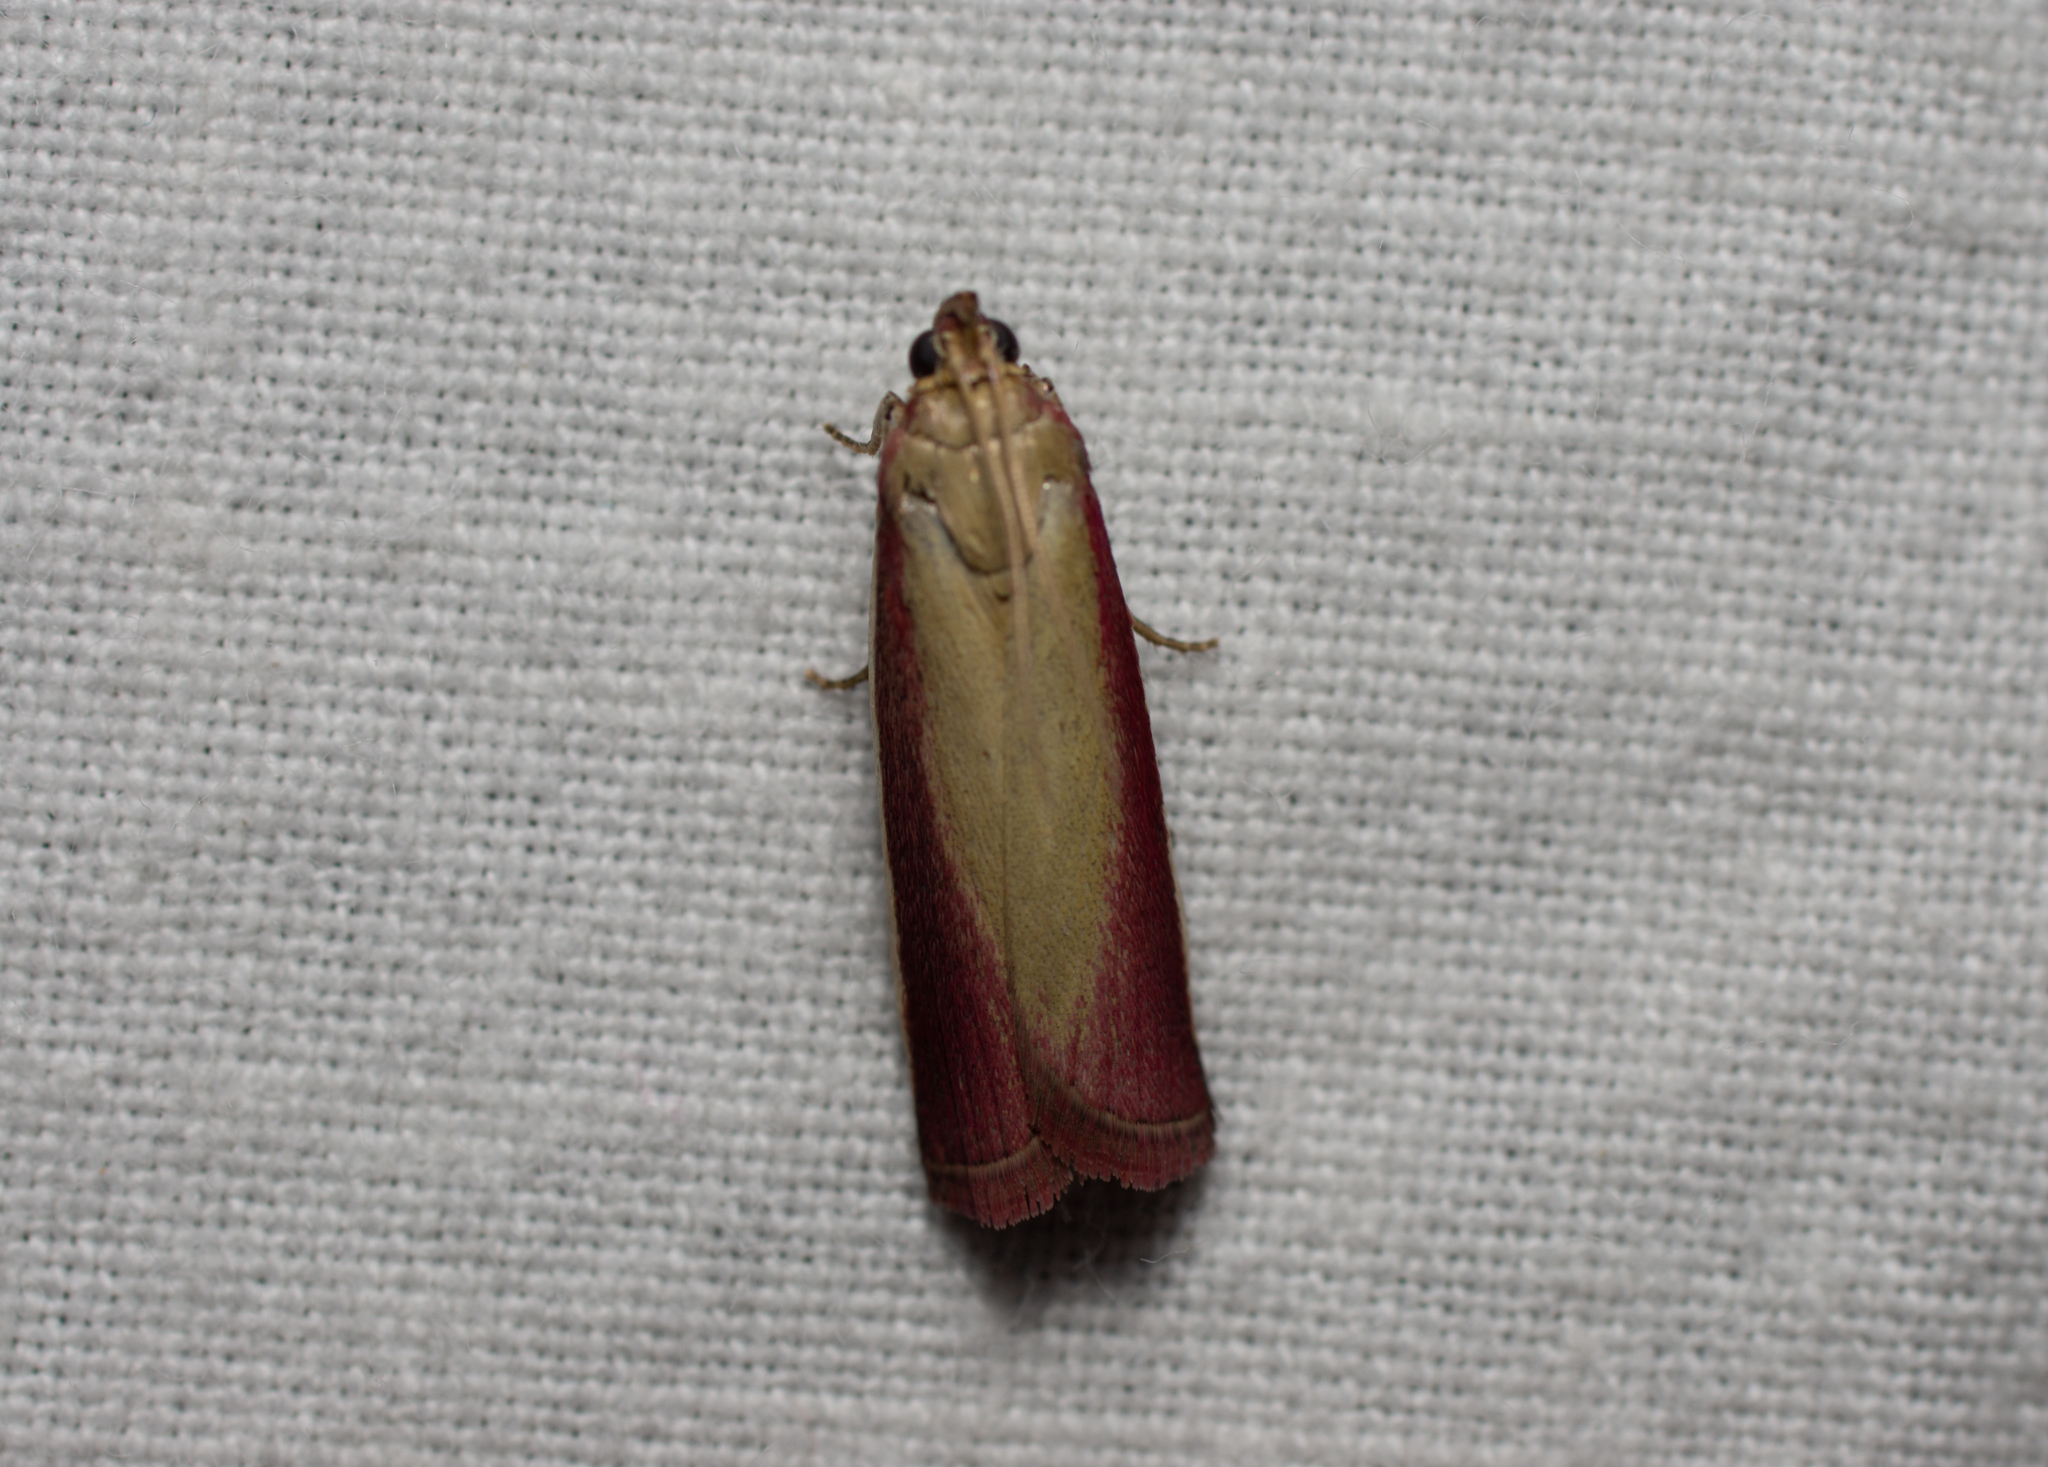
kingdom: Animalia
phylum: Arthropoda
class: Insecta
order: Lepidoptera
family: Pyralidae
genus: Oncocera
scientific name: Oncocera semirubella
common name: Rosy-striped knot-horn
